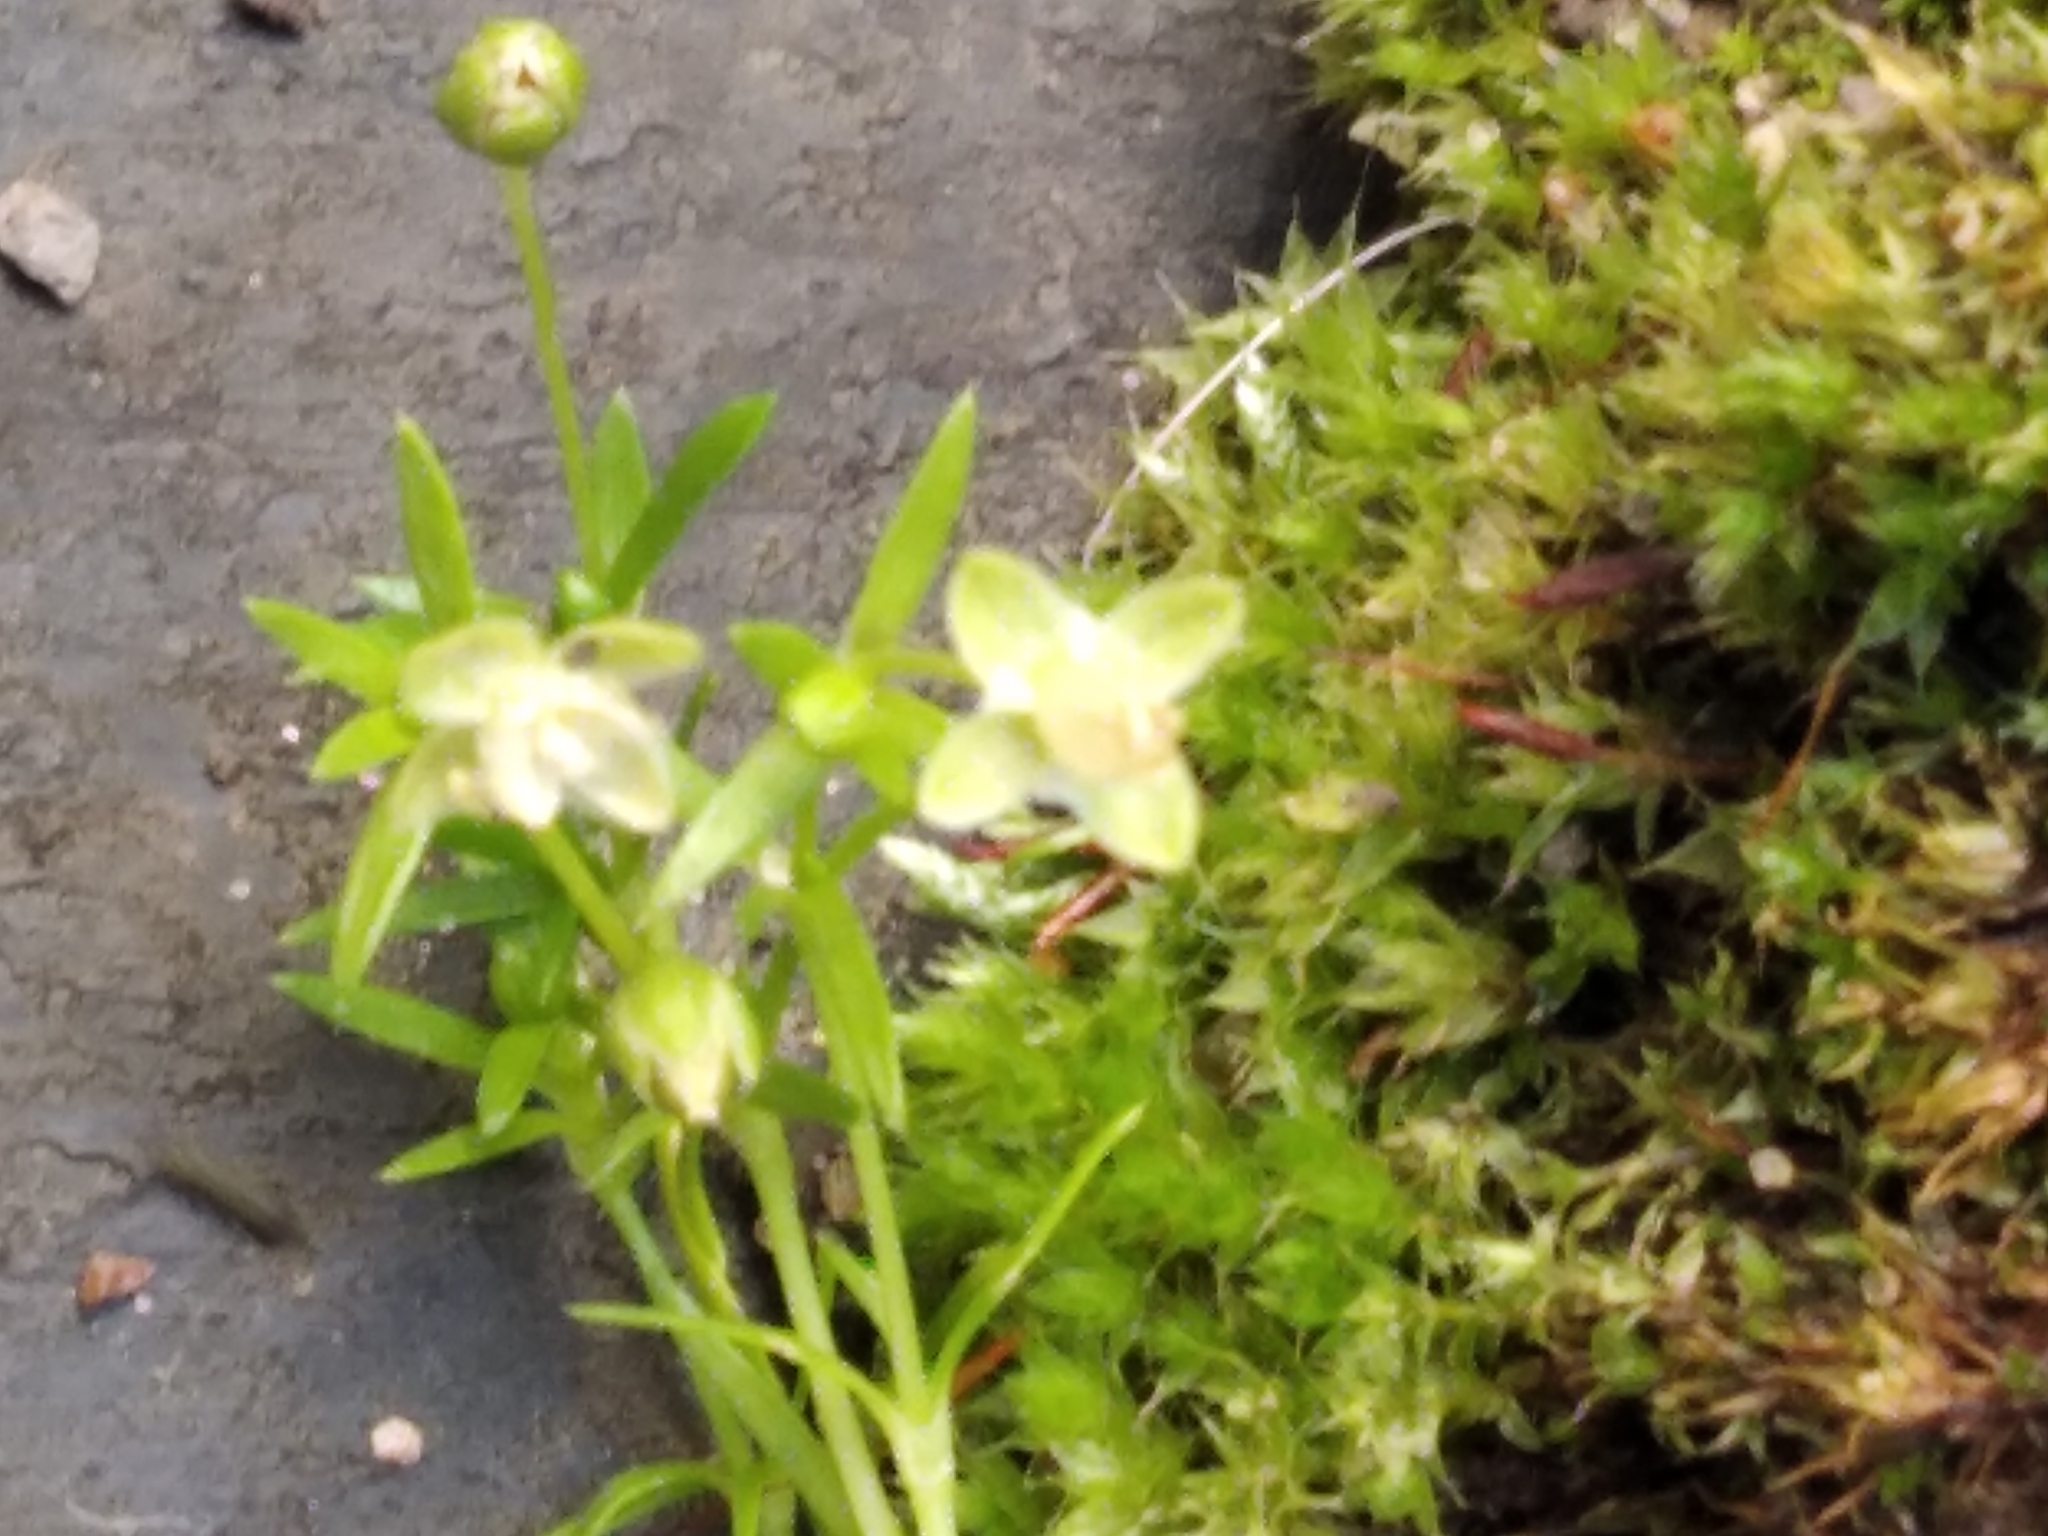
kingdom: Plantae
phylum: Tracheophyta
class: Magnoliopsida
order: Caryophyllales
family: Caryophyllaceae
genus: Sagina
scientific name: Sagina procumbens
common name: Procumbent pearlwort
